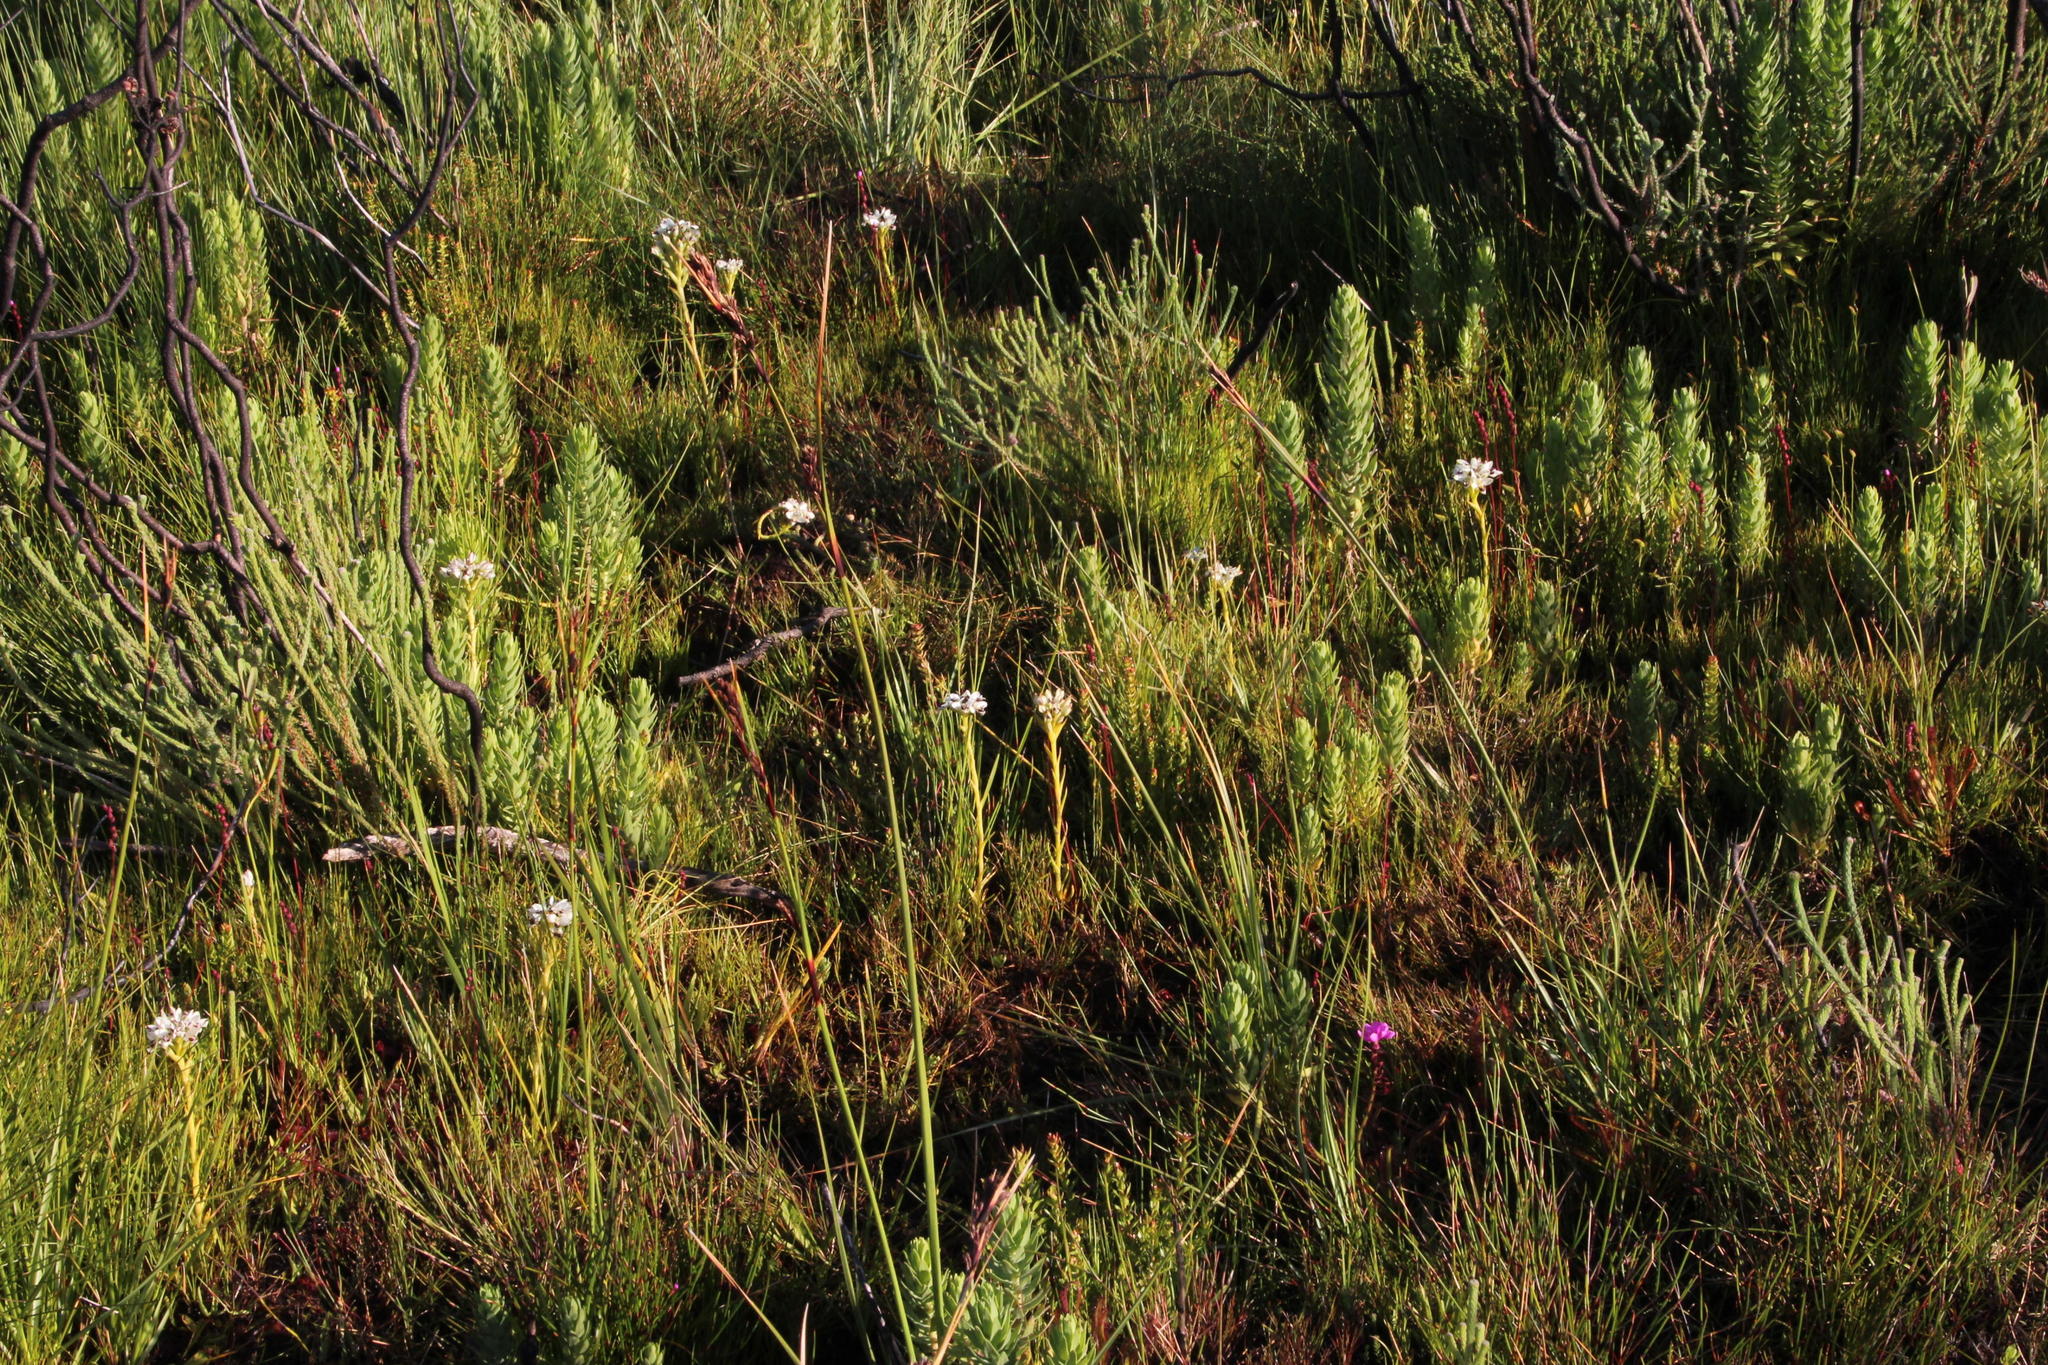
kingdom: Plantae
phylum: Tracheophyta
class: Liliopsida
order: Asparagales
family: Orchidaceae
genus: Disa
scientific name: Disa bivalvata
